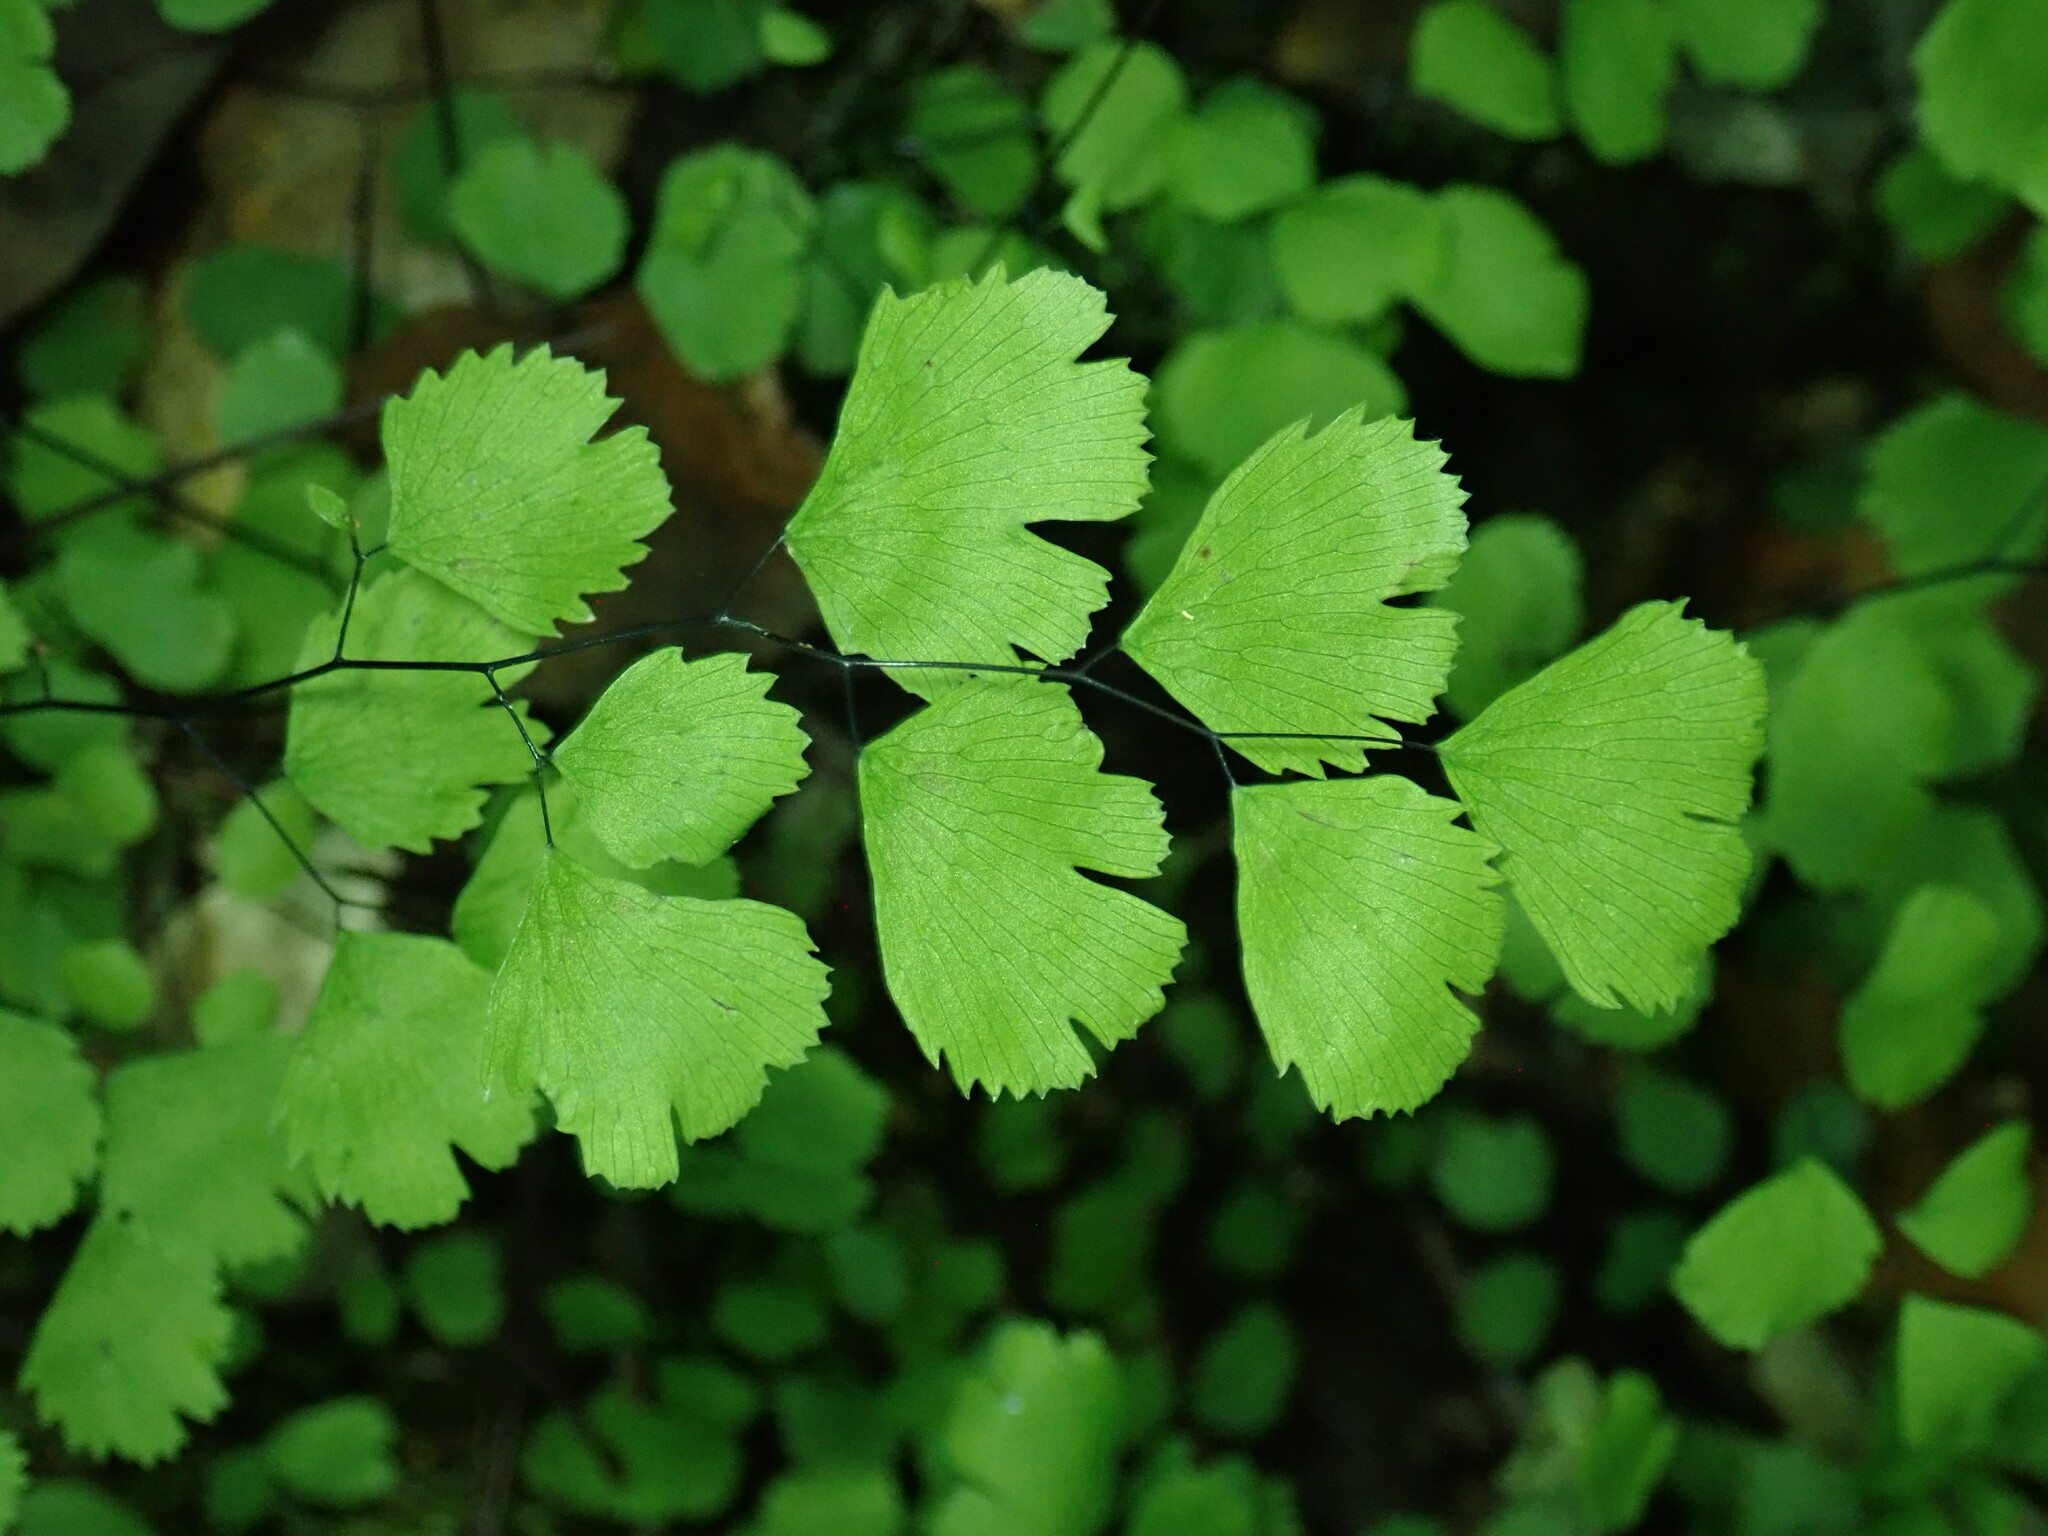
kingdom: Plantae
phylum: Tracheophyta
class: Polypodiopsida
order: Polypodiales
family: Pteridaceae
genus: Adiantum
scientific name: Adiantum jordanii
